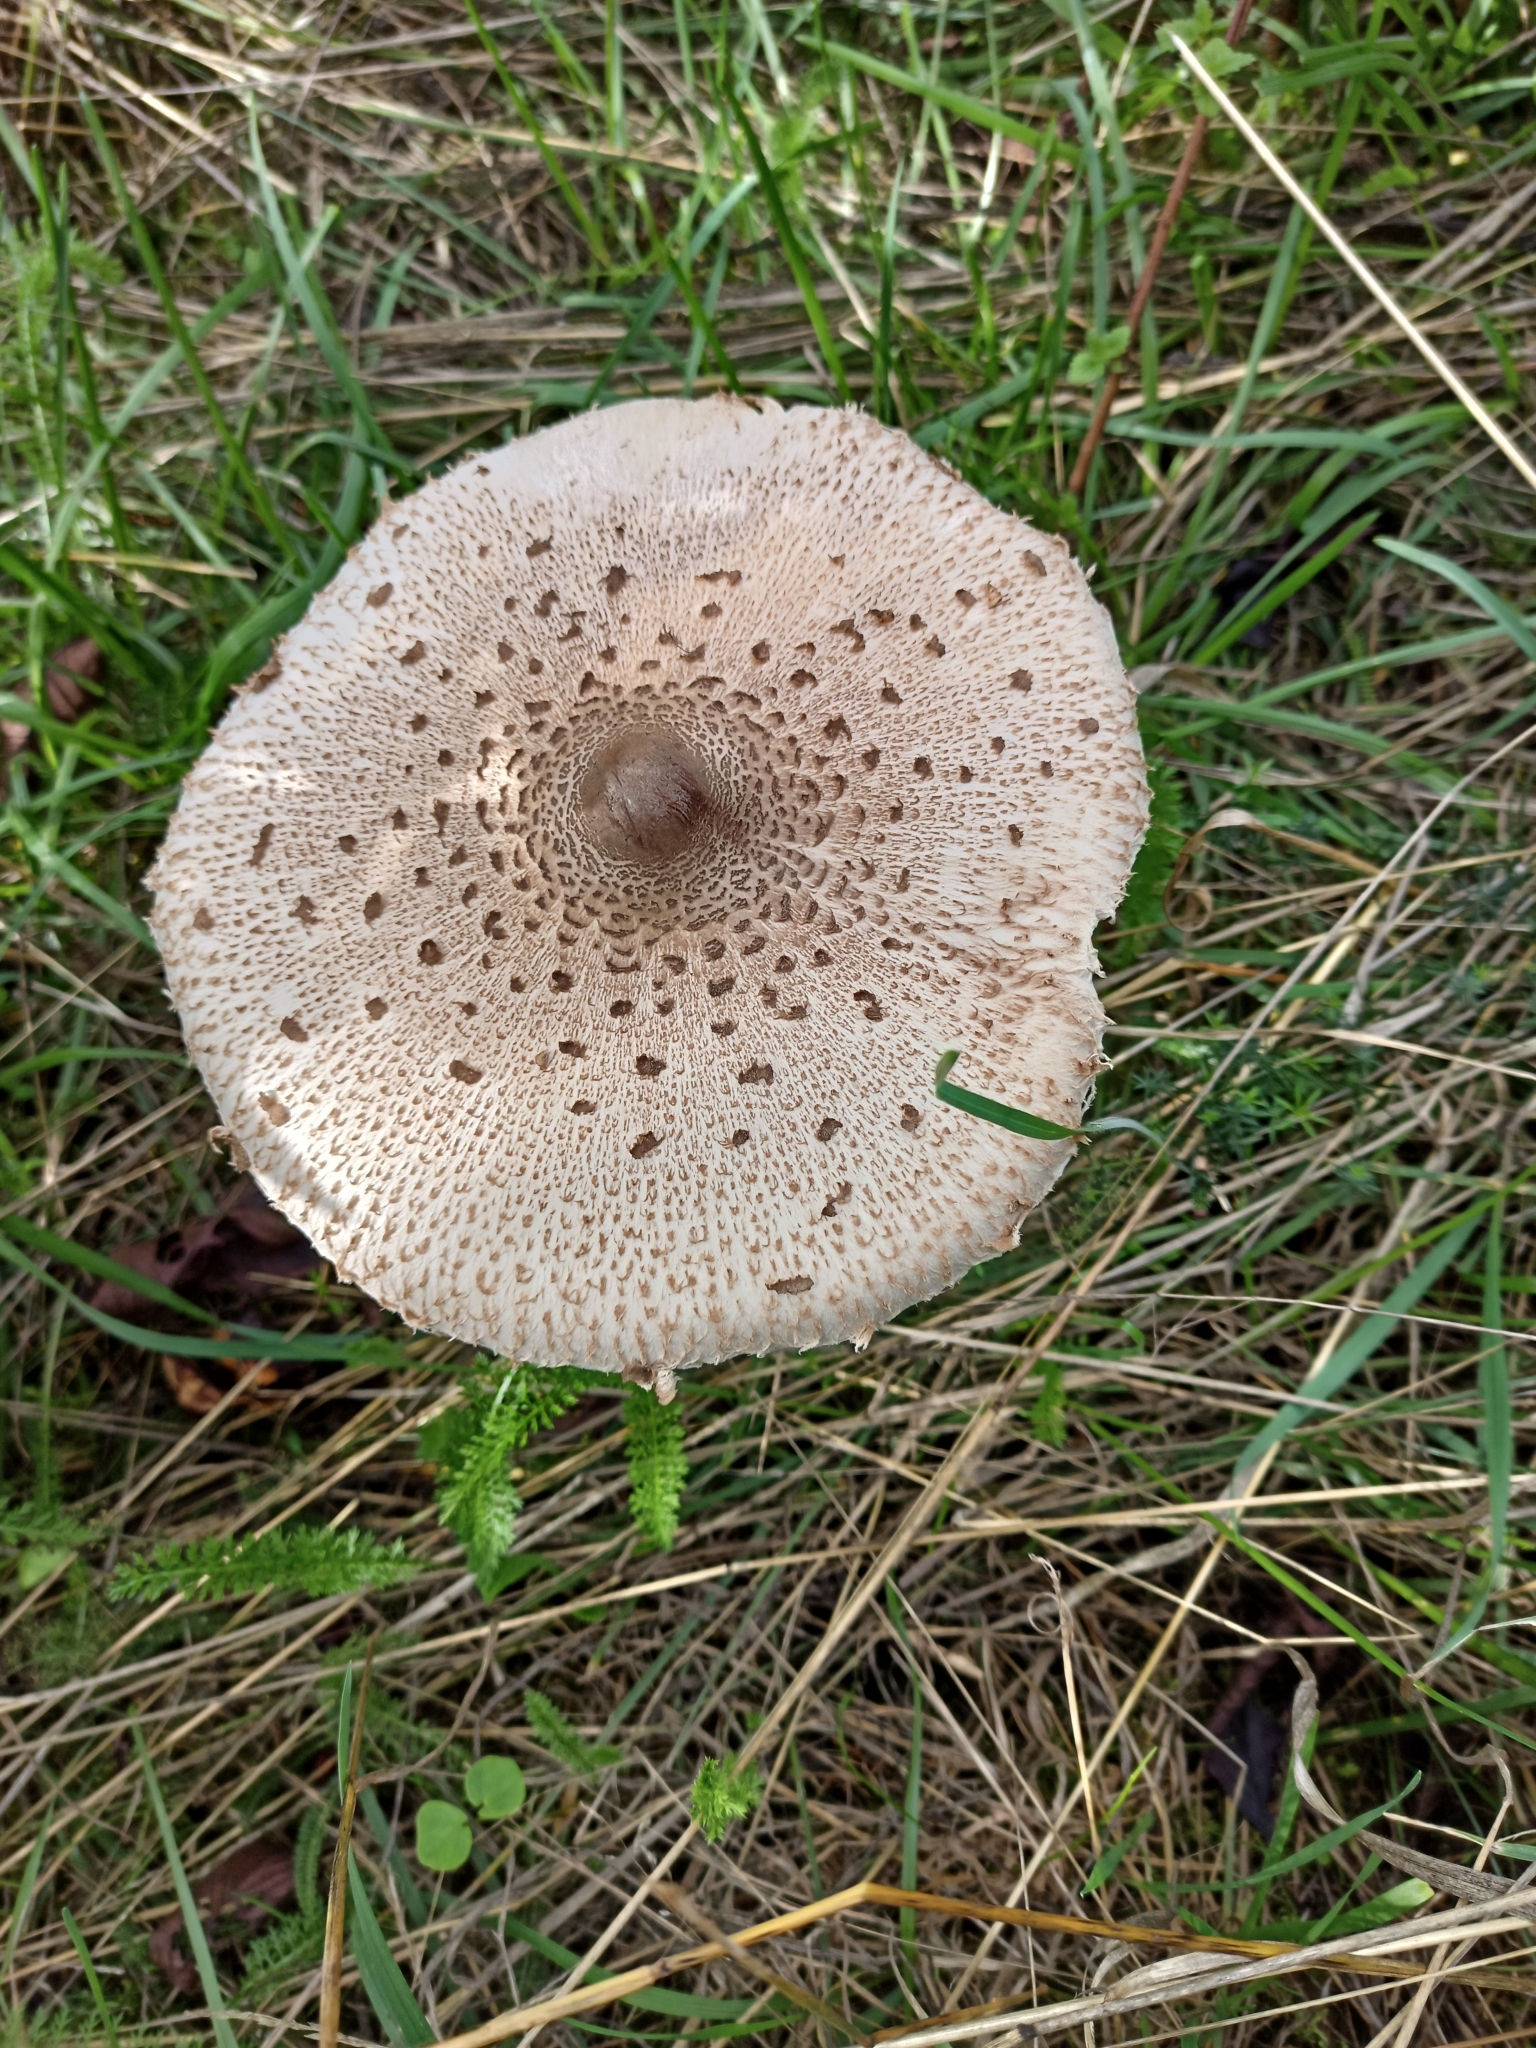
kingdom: Fungi
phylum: Basidiomycota
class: Agaricomycetes
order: Agaricales
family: Agaricaceae
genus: Macrolepiota
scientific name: Macrolepiota procera
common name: Parasol
